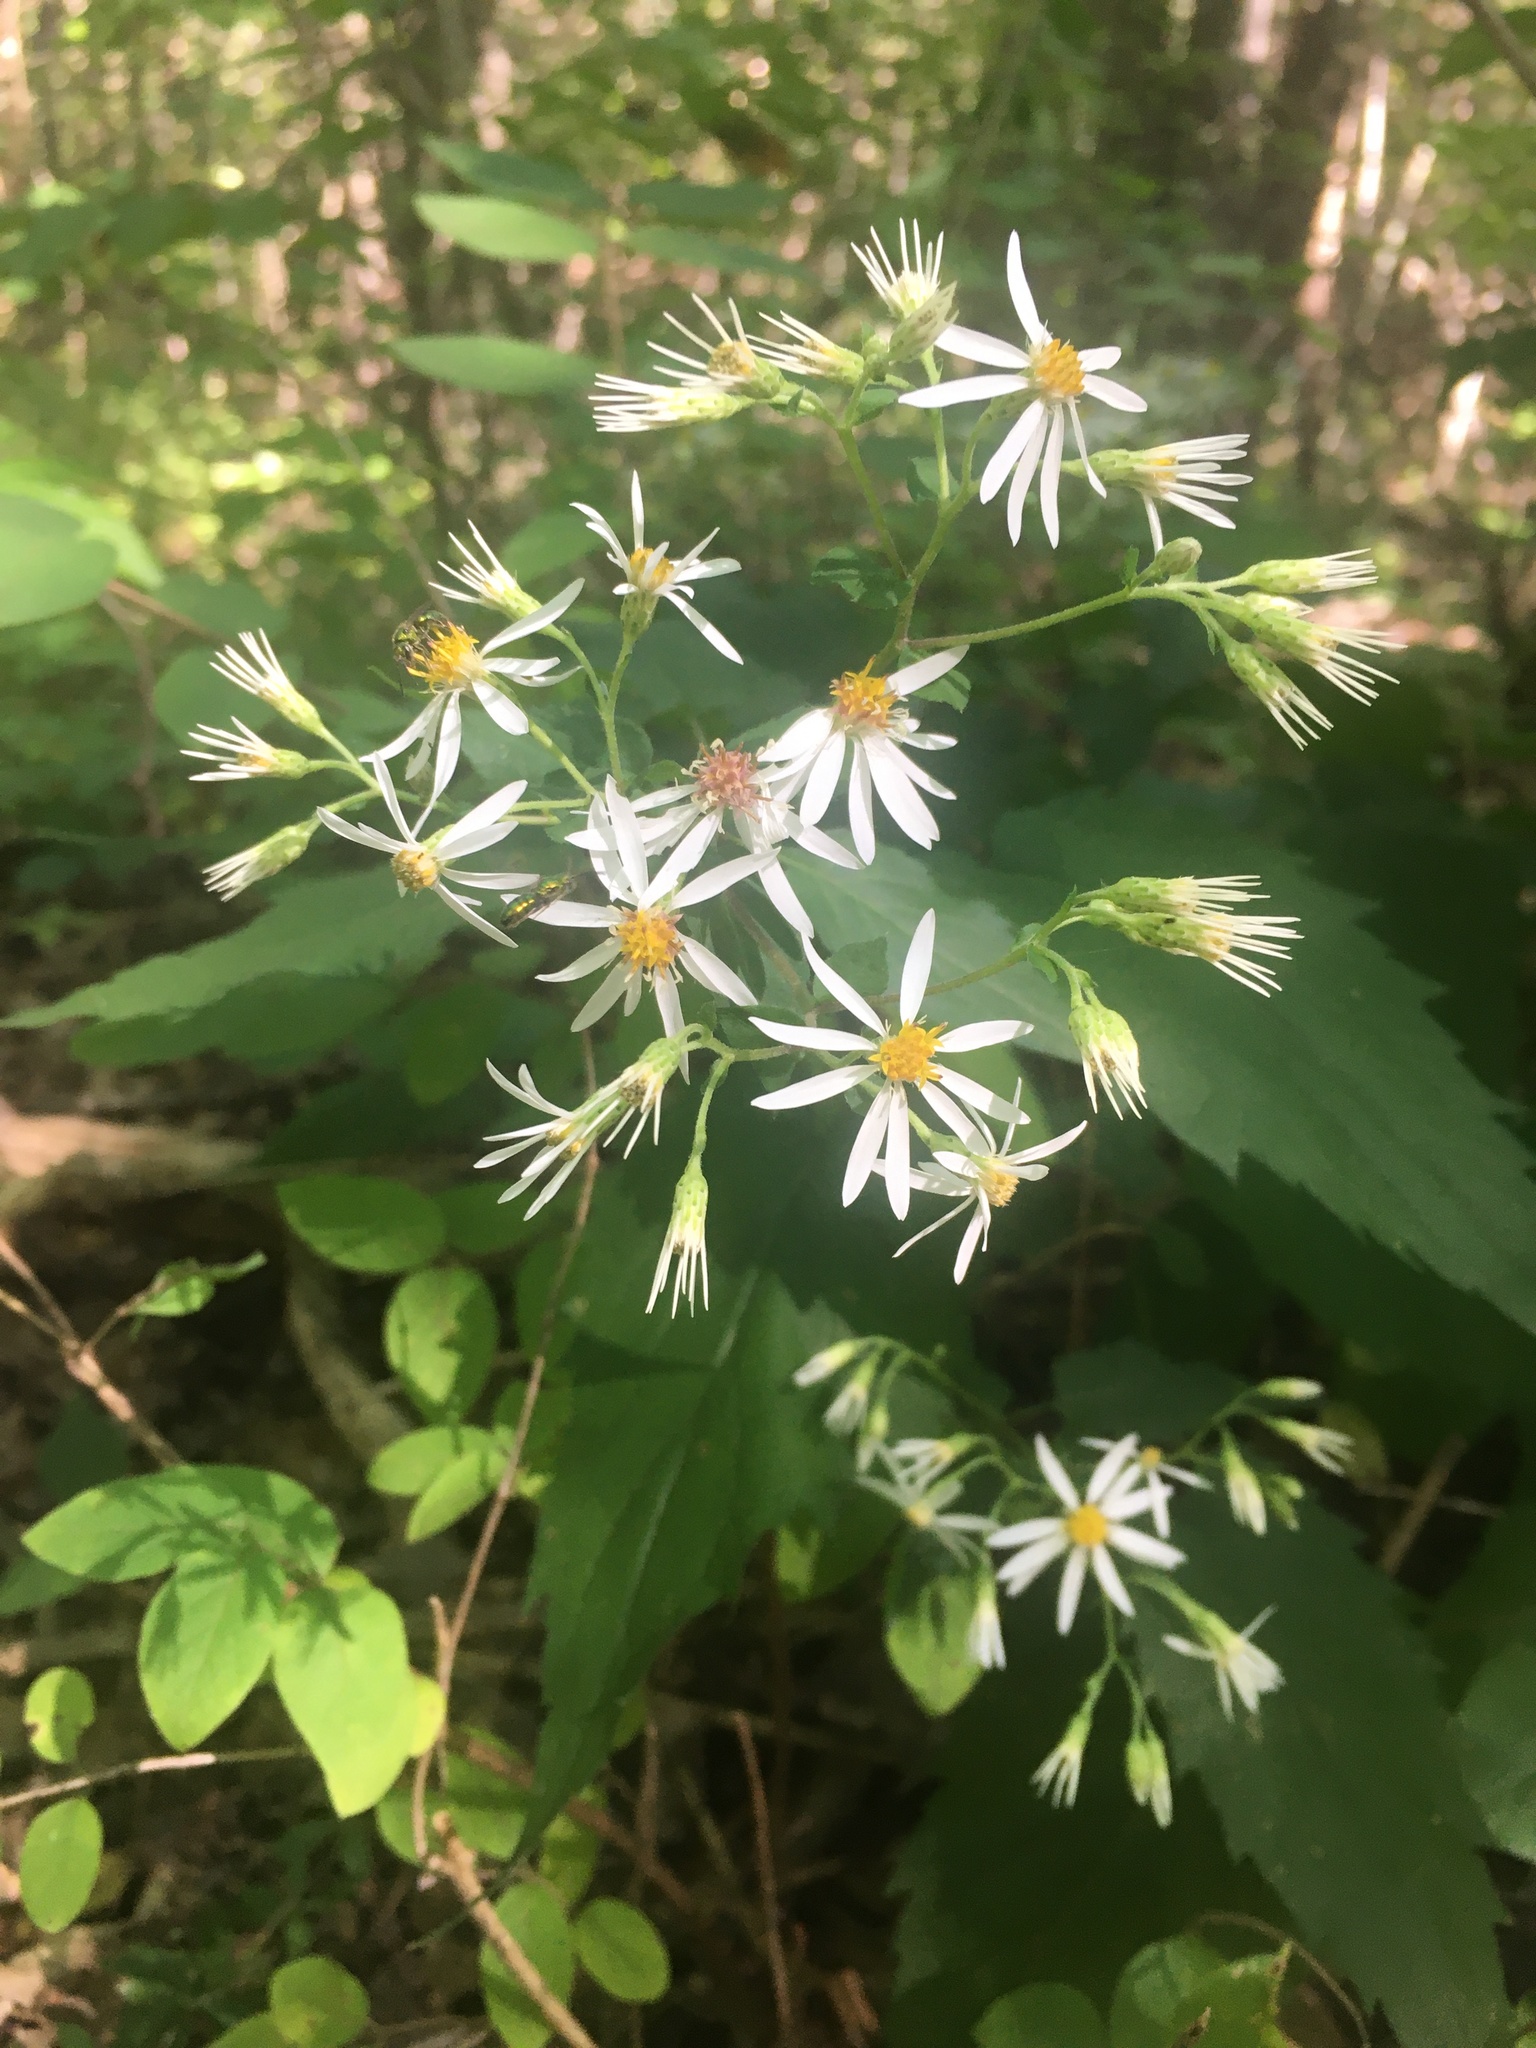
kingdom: Plantae
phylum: Tracheophyta
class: Magnoliopsida
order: Asterales
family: Asteraceae
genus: Eurybia
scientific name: Eurybia divaricata
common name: White wood aster
